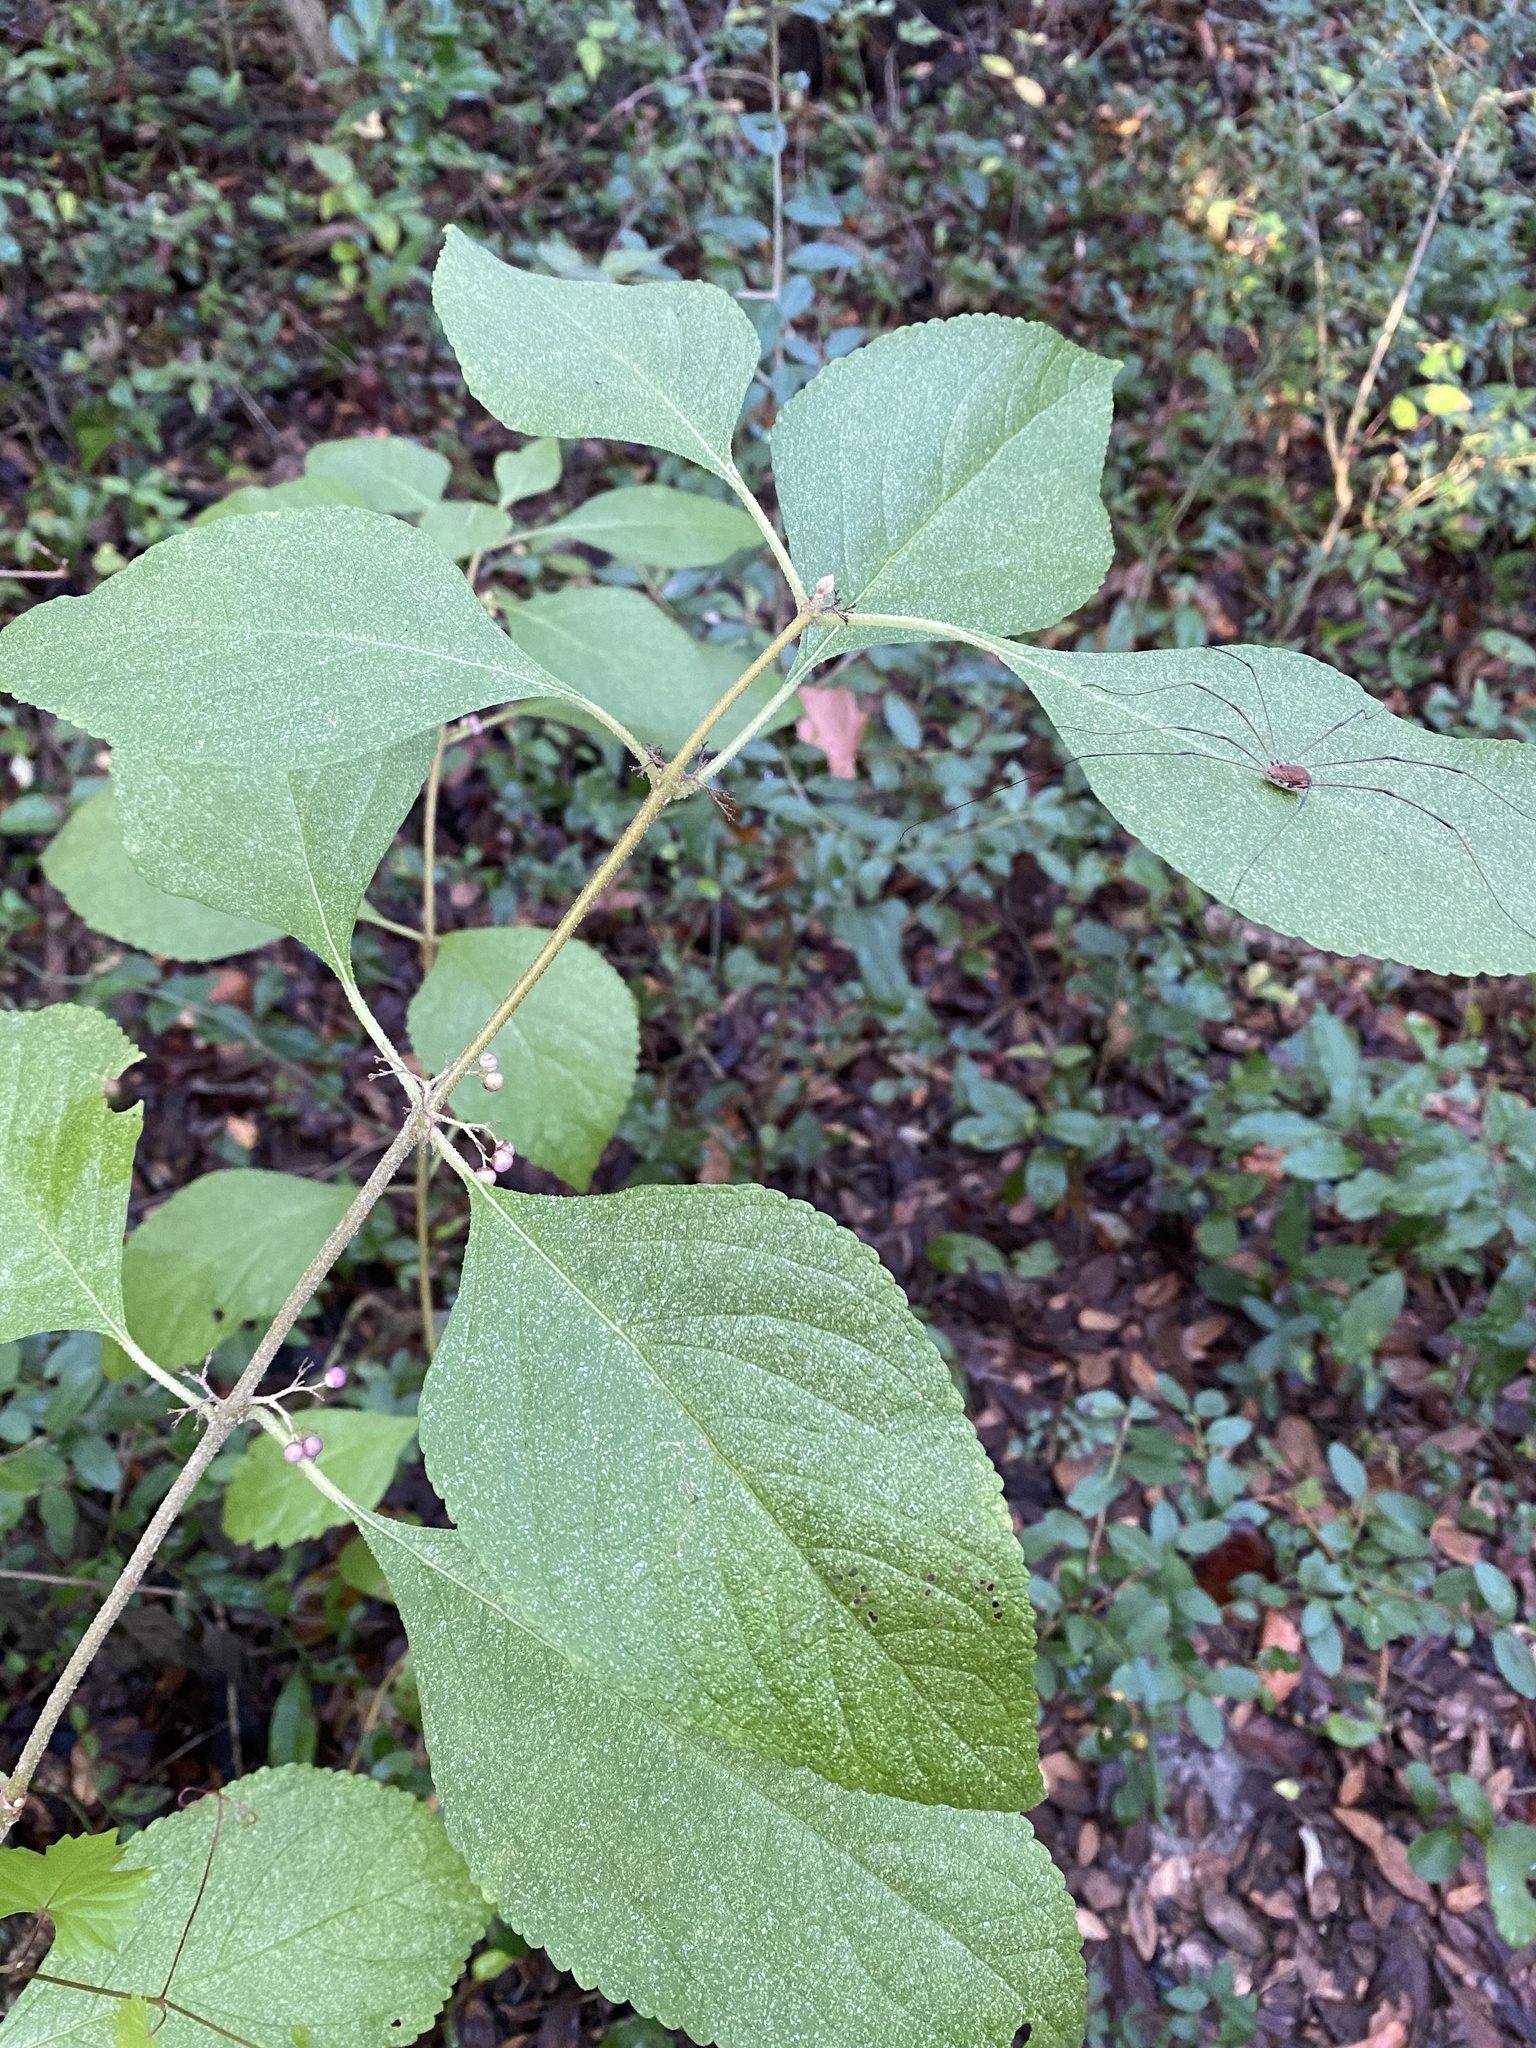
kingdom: Plantae
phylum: Tracheophyta
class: Magnoliopsida
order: Lamiales
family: Lamiaceae
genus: Callicarpa
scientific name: Callicarpa americana
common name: American beautyberry
